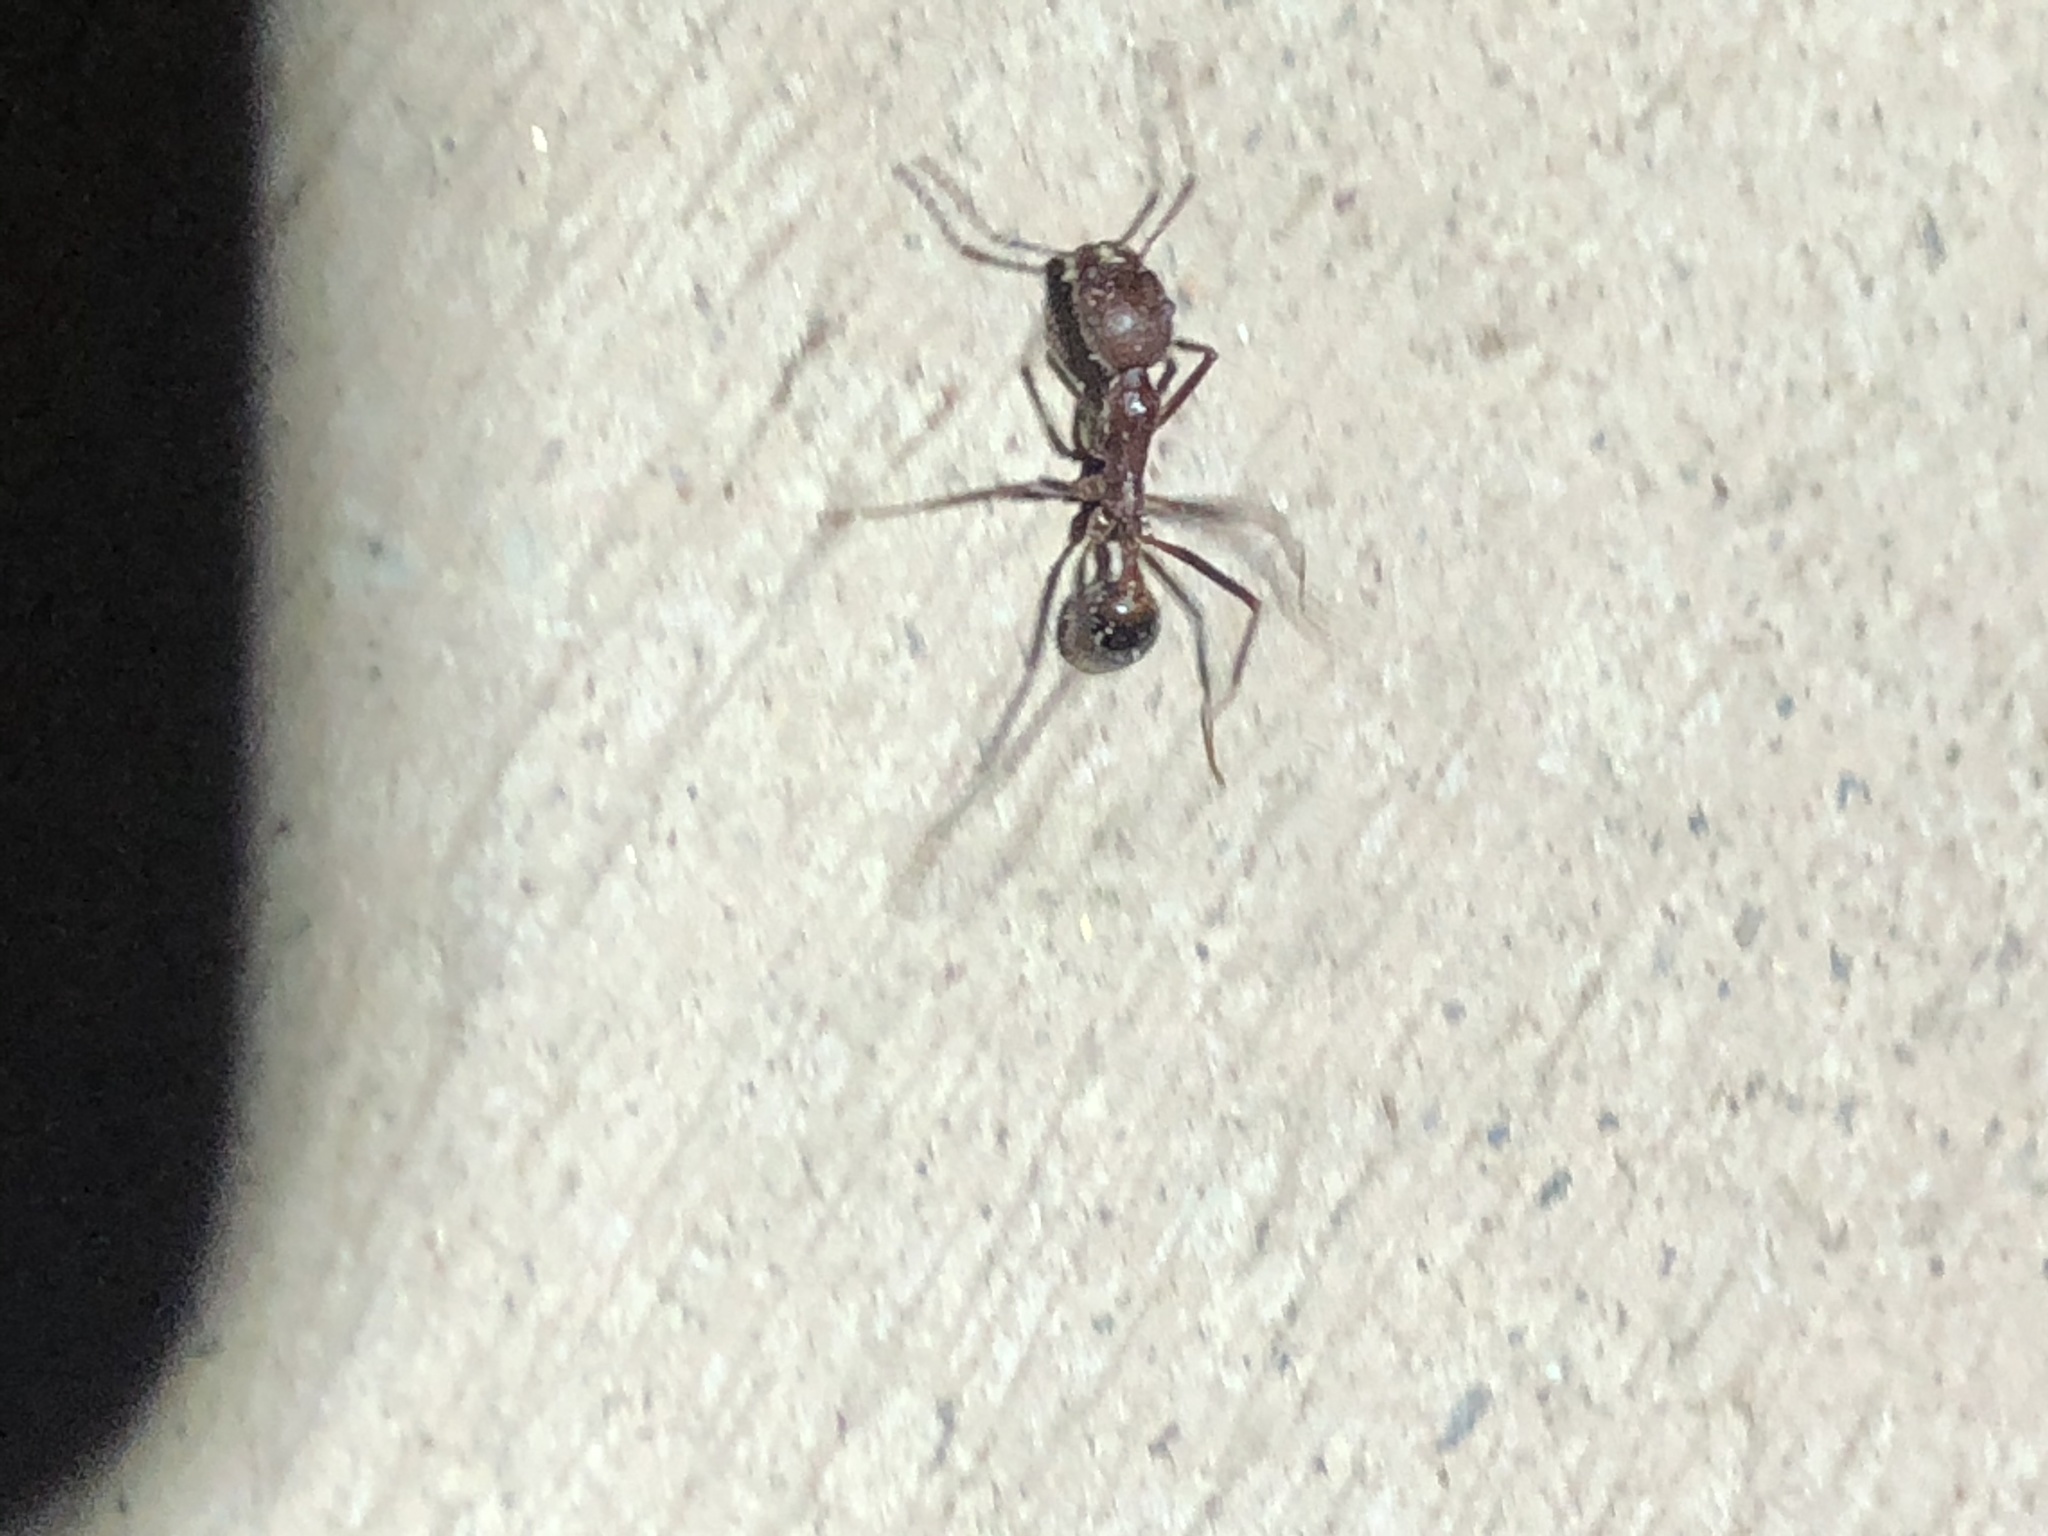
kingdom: Animalia
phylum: Arthropoda
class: Insecta
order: Hymenoptera
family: Formicidae
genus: Novomessor
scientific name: Novomessor albisetosa
